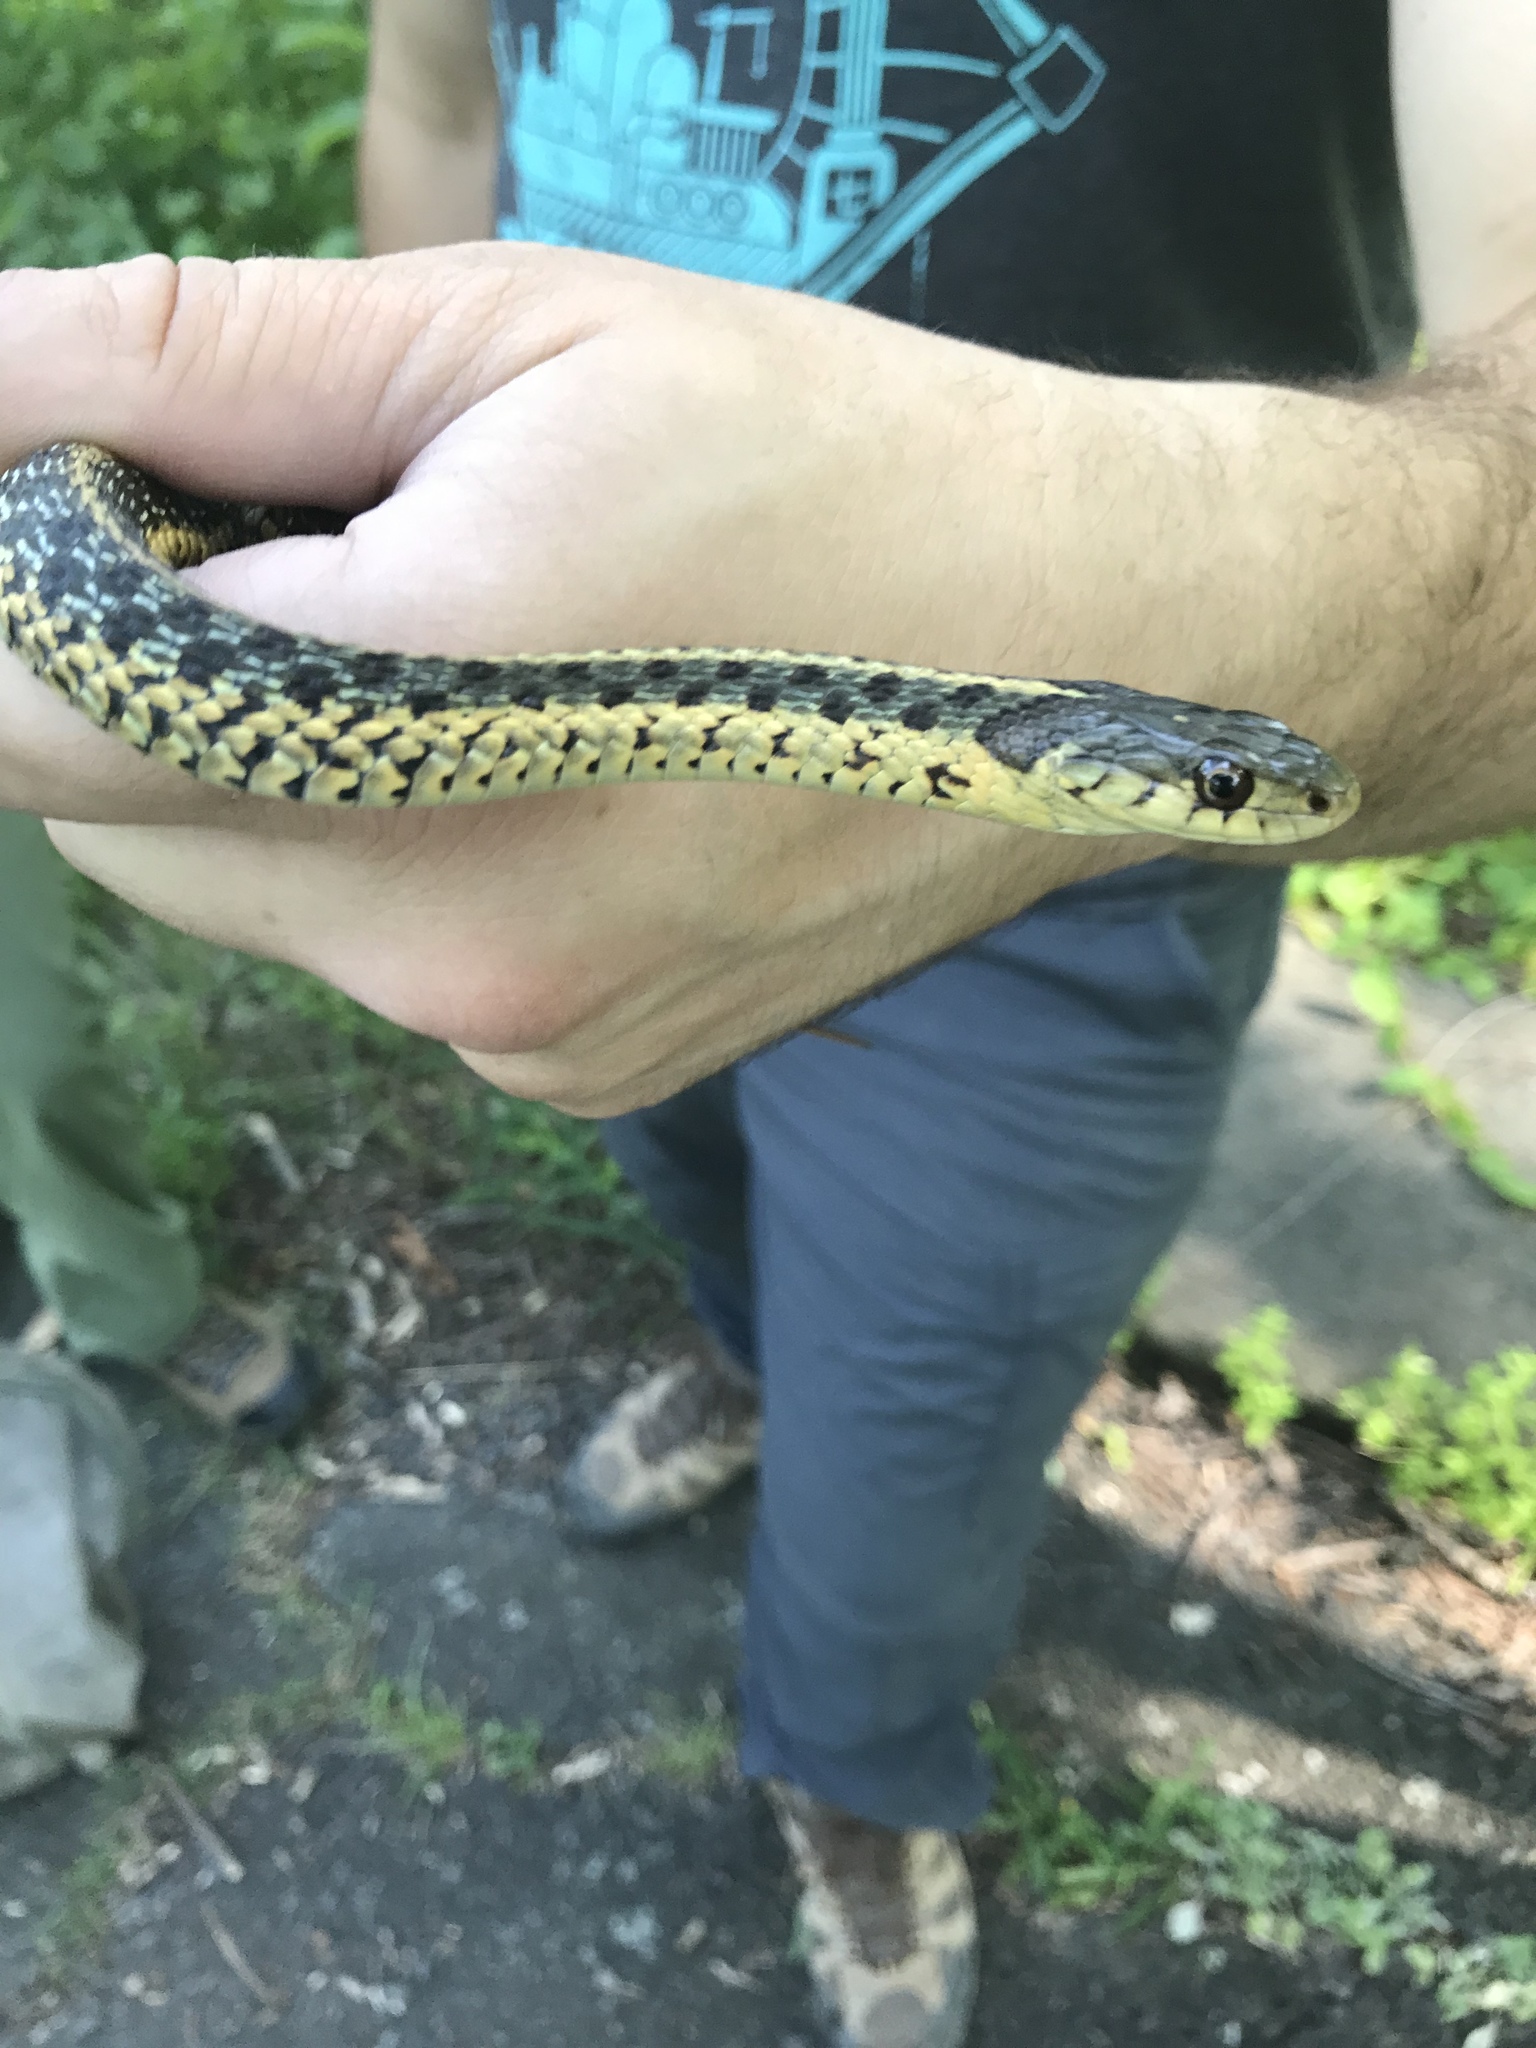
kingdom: Animalia
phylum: Chordata
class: Squamata
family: Colubridae
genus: Thamnophis
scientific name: Thamnophis sirtalis
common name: Common garter snake
